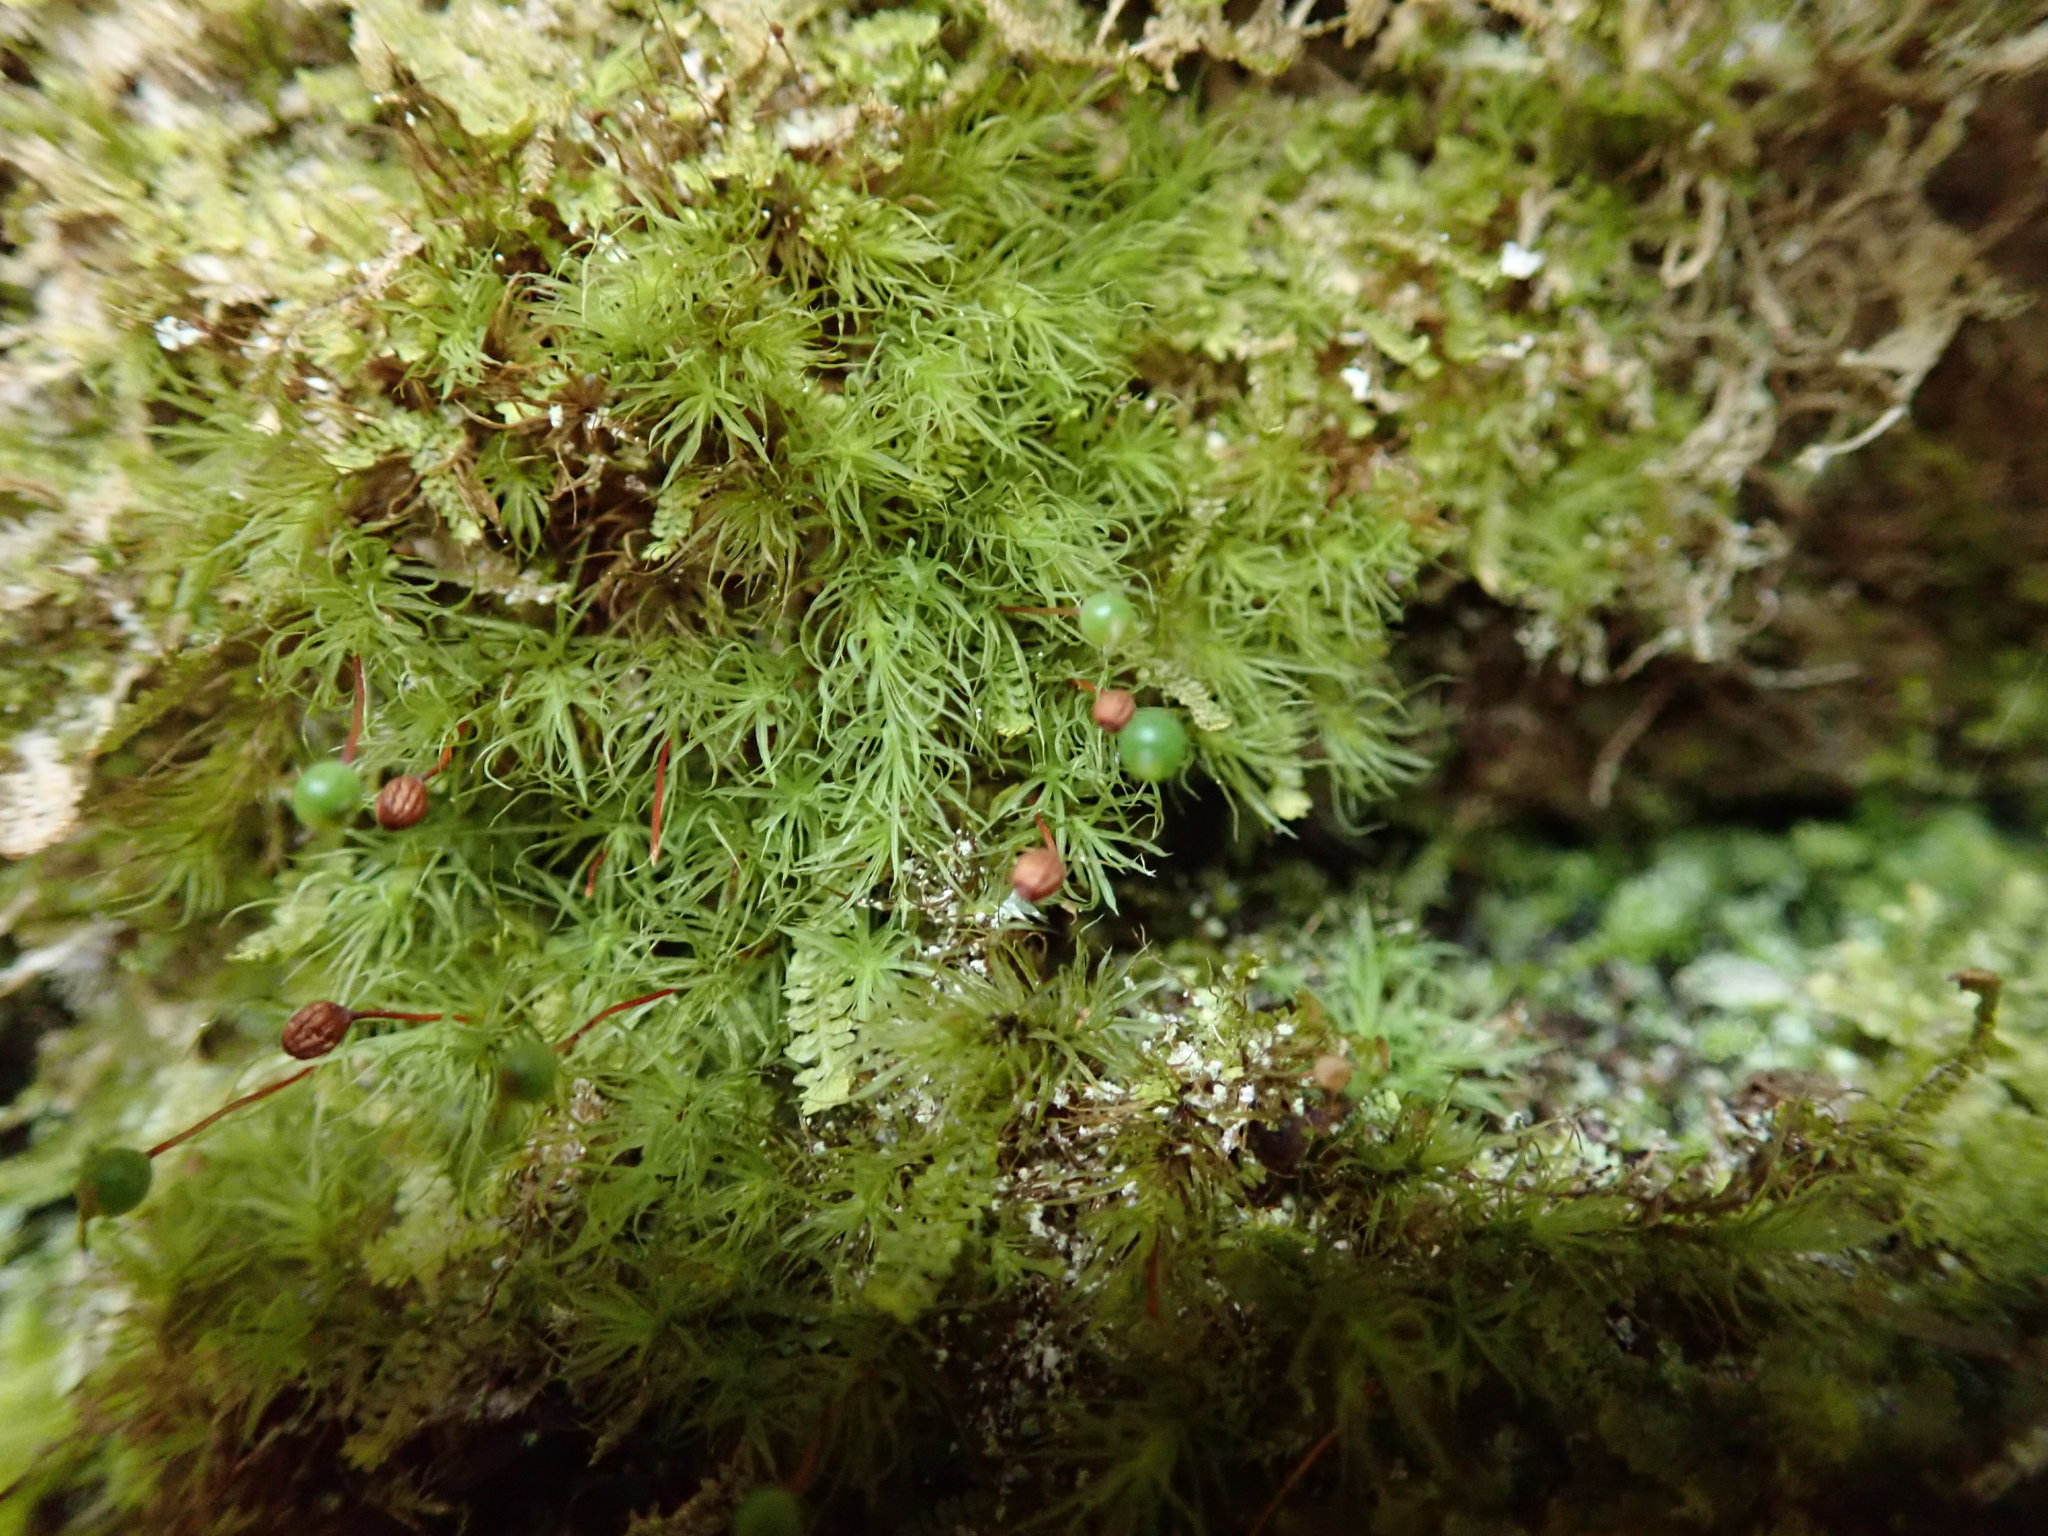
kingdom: Plantae
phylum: Bryophyta
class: Bryopsida
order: Bartramiales
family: Bartramiaceae
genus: Bartramia
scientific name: Bartramia ithyphylla
